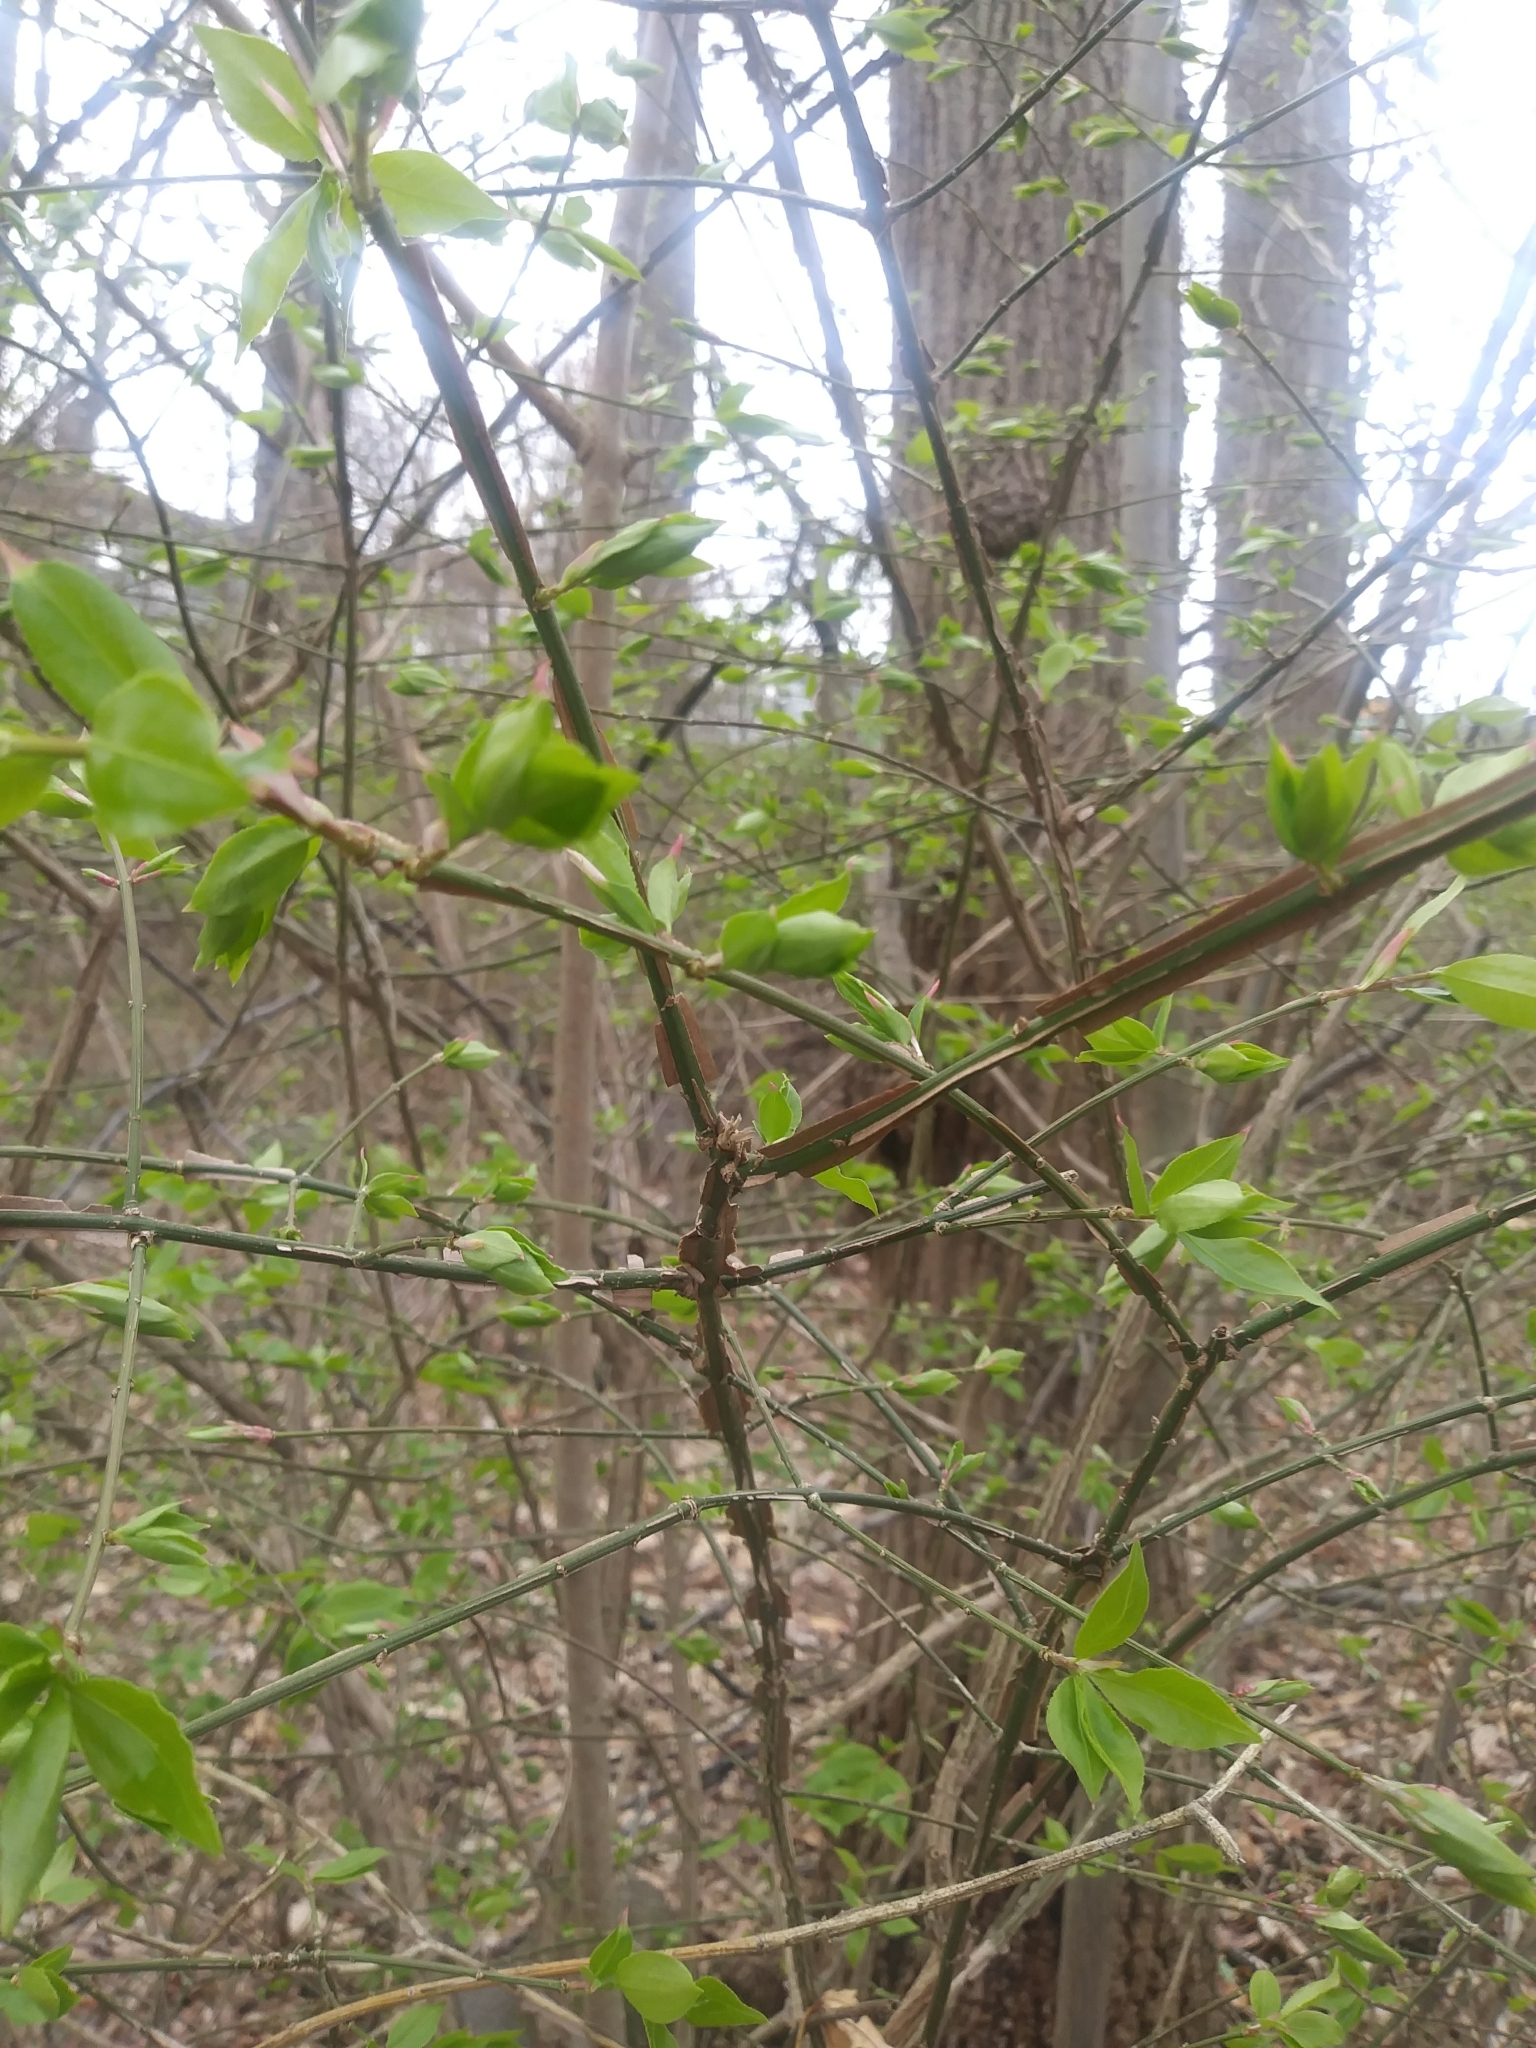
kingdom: Plantae
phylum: Tracheophyta
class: Magnoliopsida
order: Celastrales
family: Celastraceae
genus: Euonymus
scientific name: Euonymus alatus
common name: Winged euonymus
